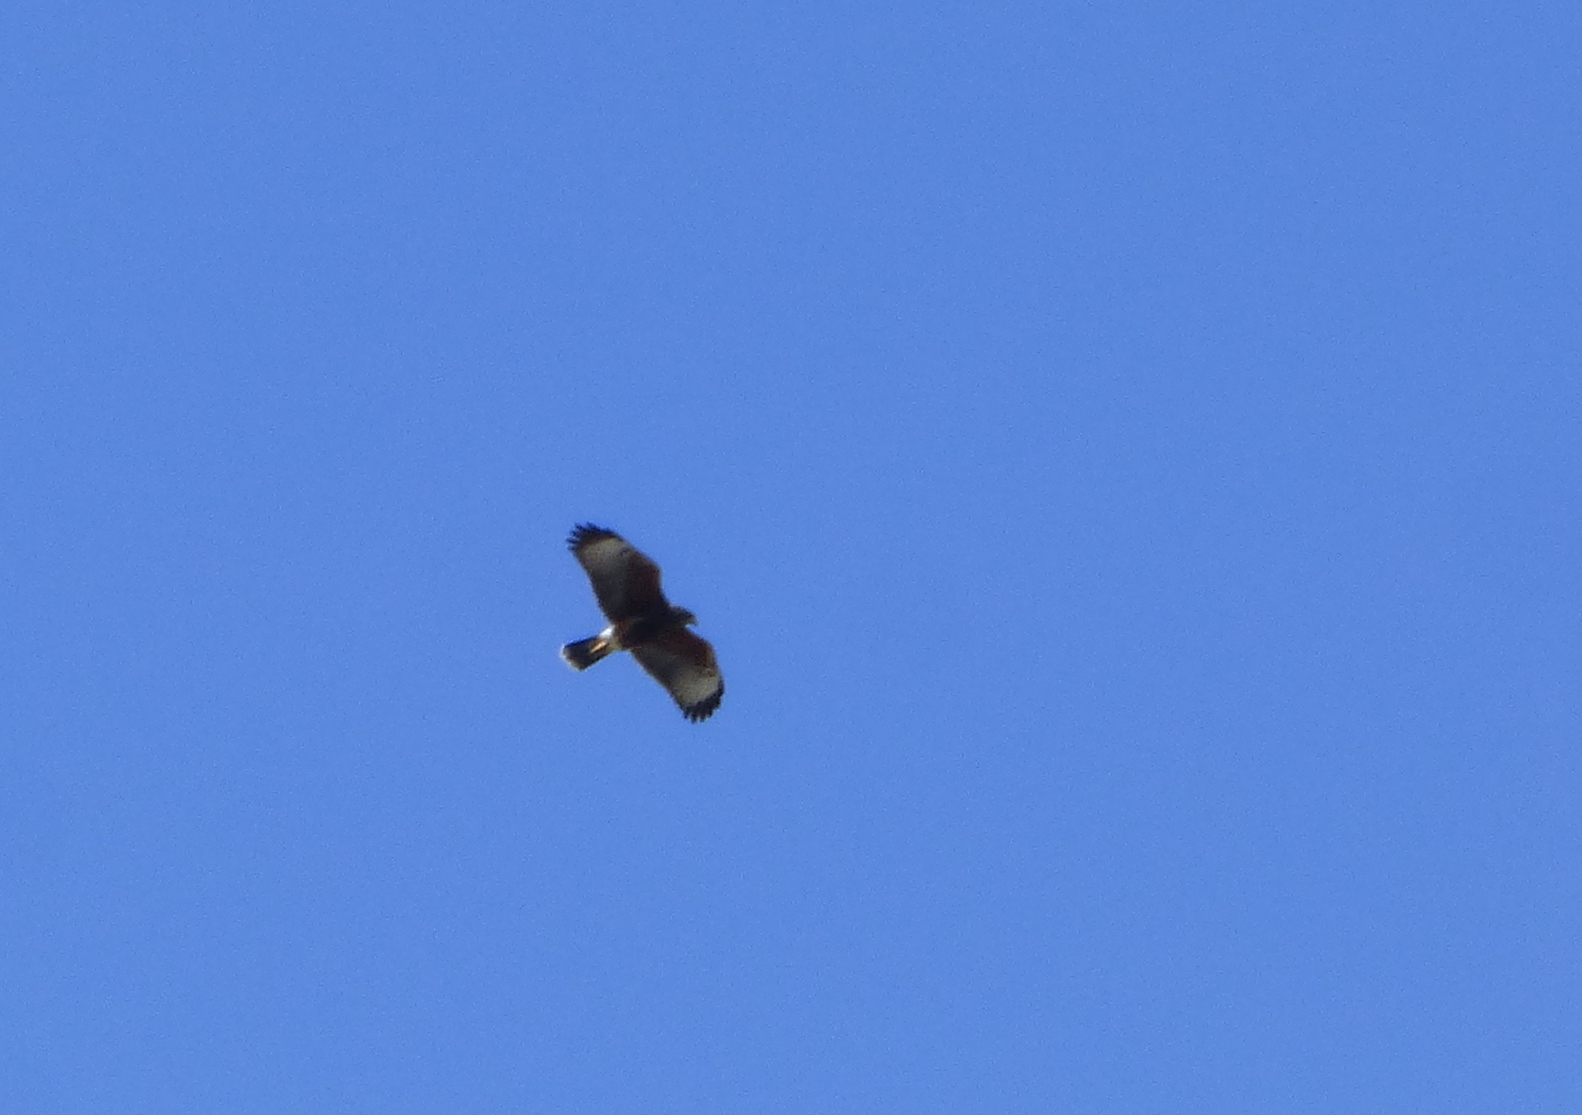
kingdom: Animalia
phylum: Chordata
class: Aves
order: Accipitriformes
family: Accipitridae
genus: Parabuteo
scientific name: Parabuteo unicinctus
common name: Harris's hawk
